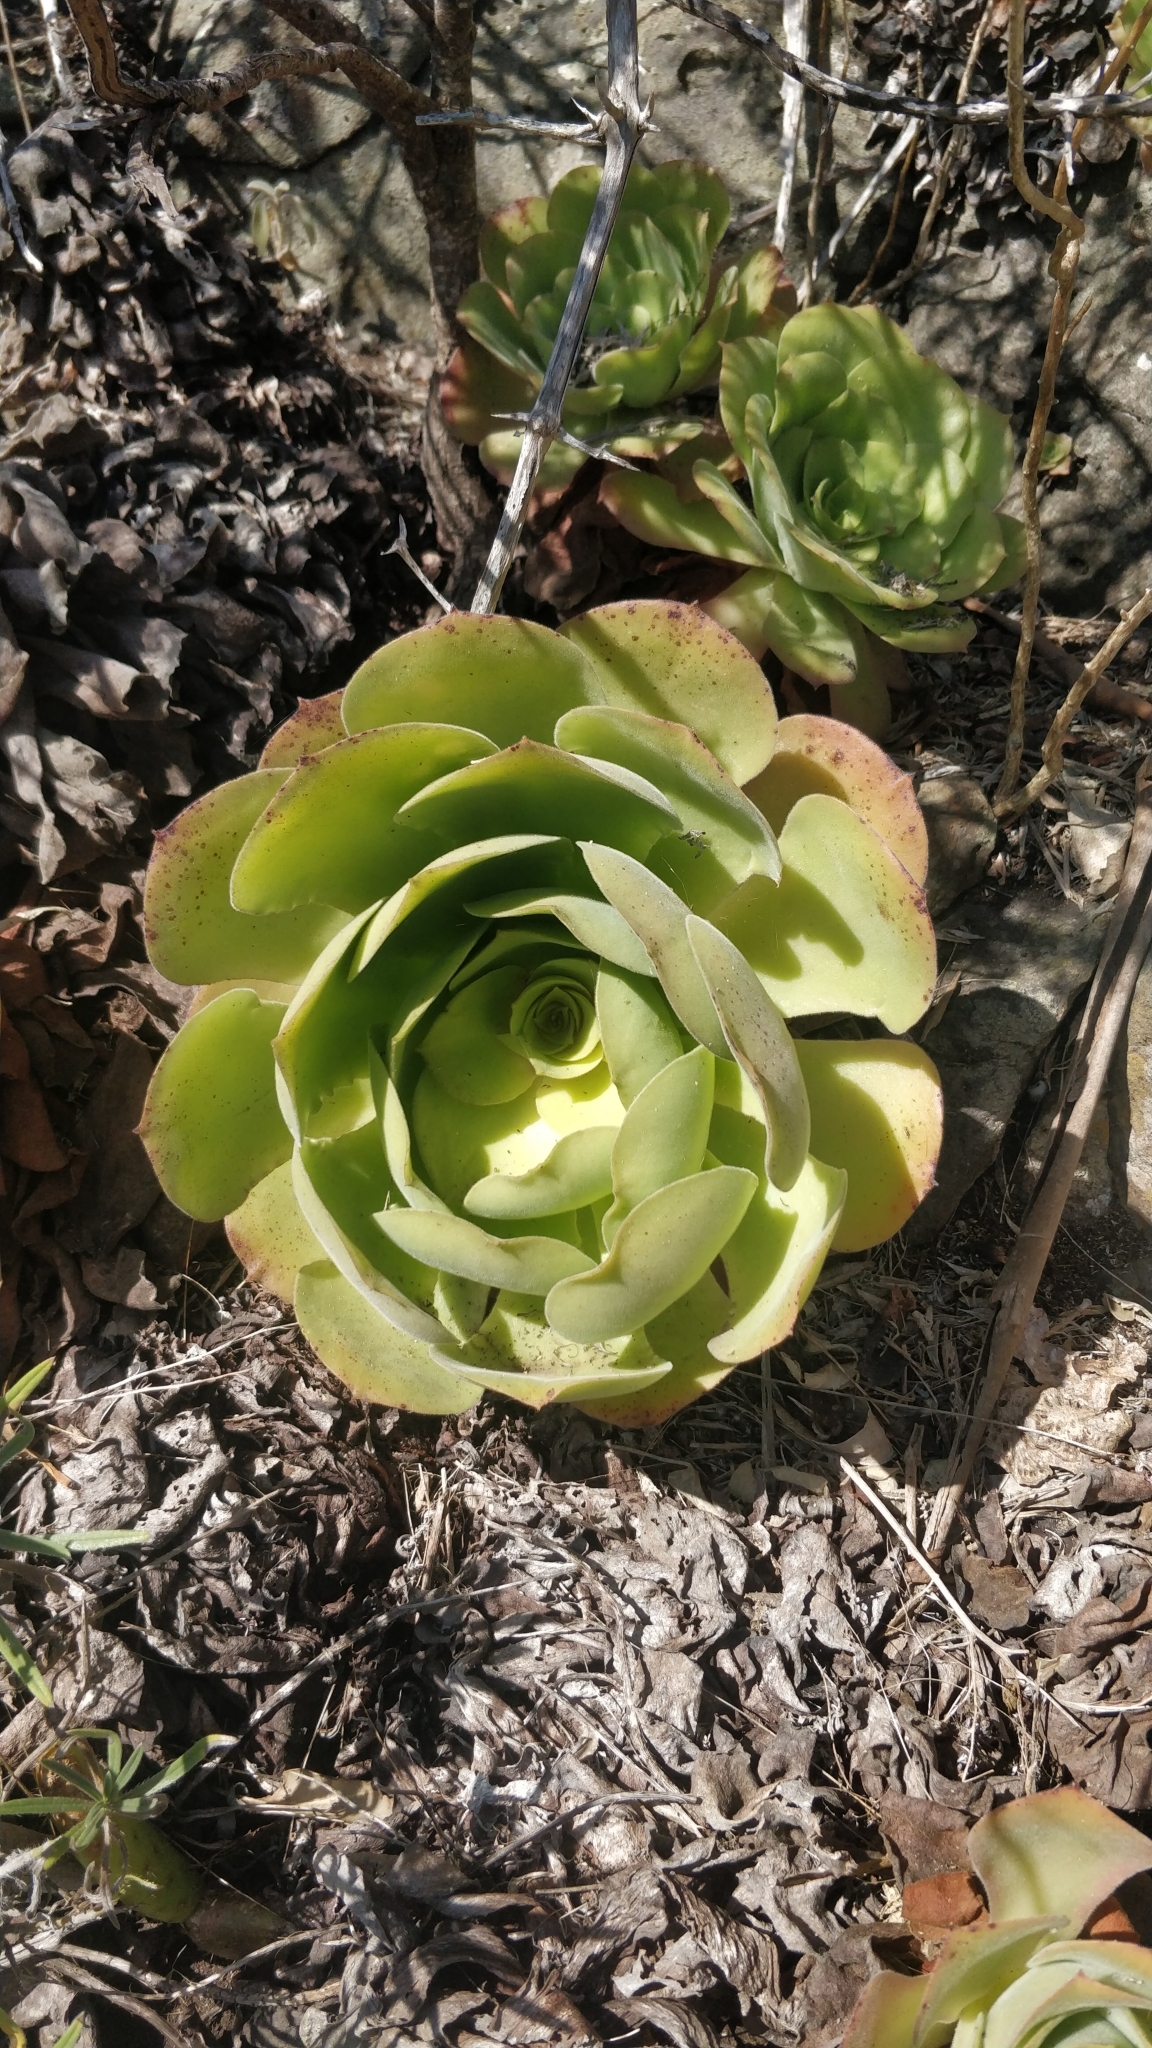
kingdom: Plantae
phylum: Tracheophyta
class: Magnoliopsida
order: Saxifragales
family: Crassulaceae
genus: Aeonium
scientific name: Aeonium canariense
